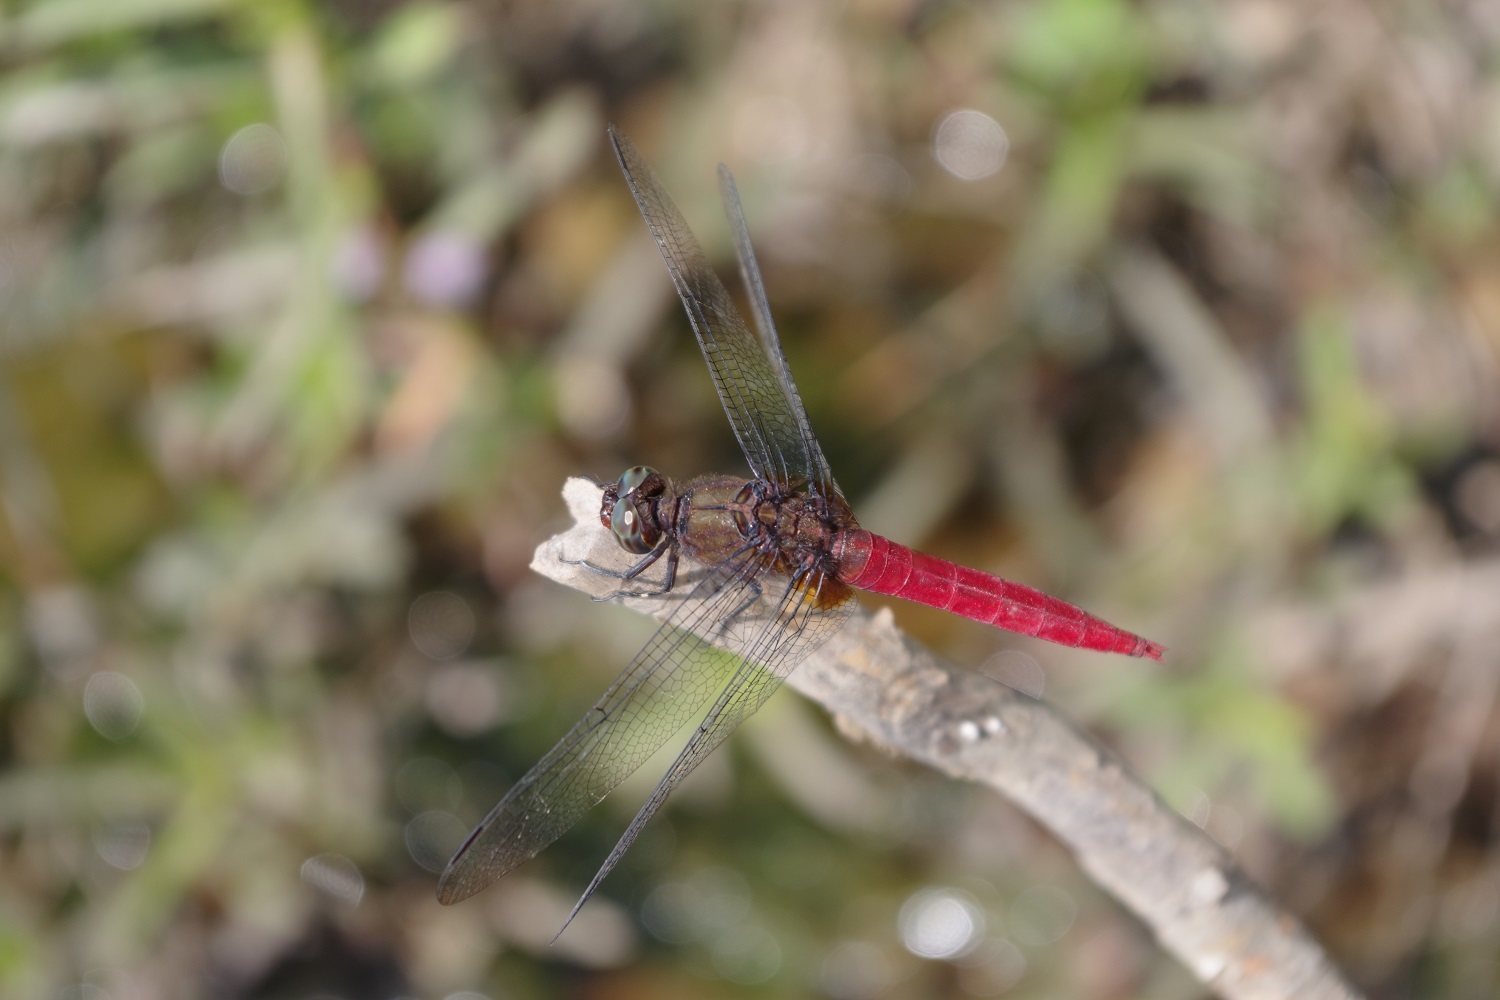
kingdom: Animalia
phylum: Arthropoda
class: Insecta
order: Odonata
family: Libellulidae
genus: Orthetrum
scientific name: Orthetrum chrysis
